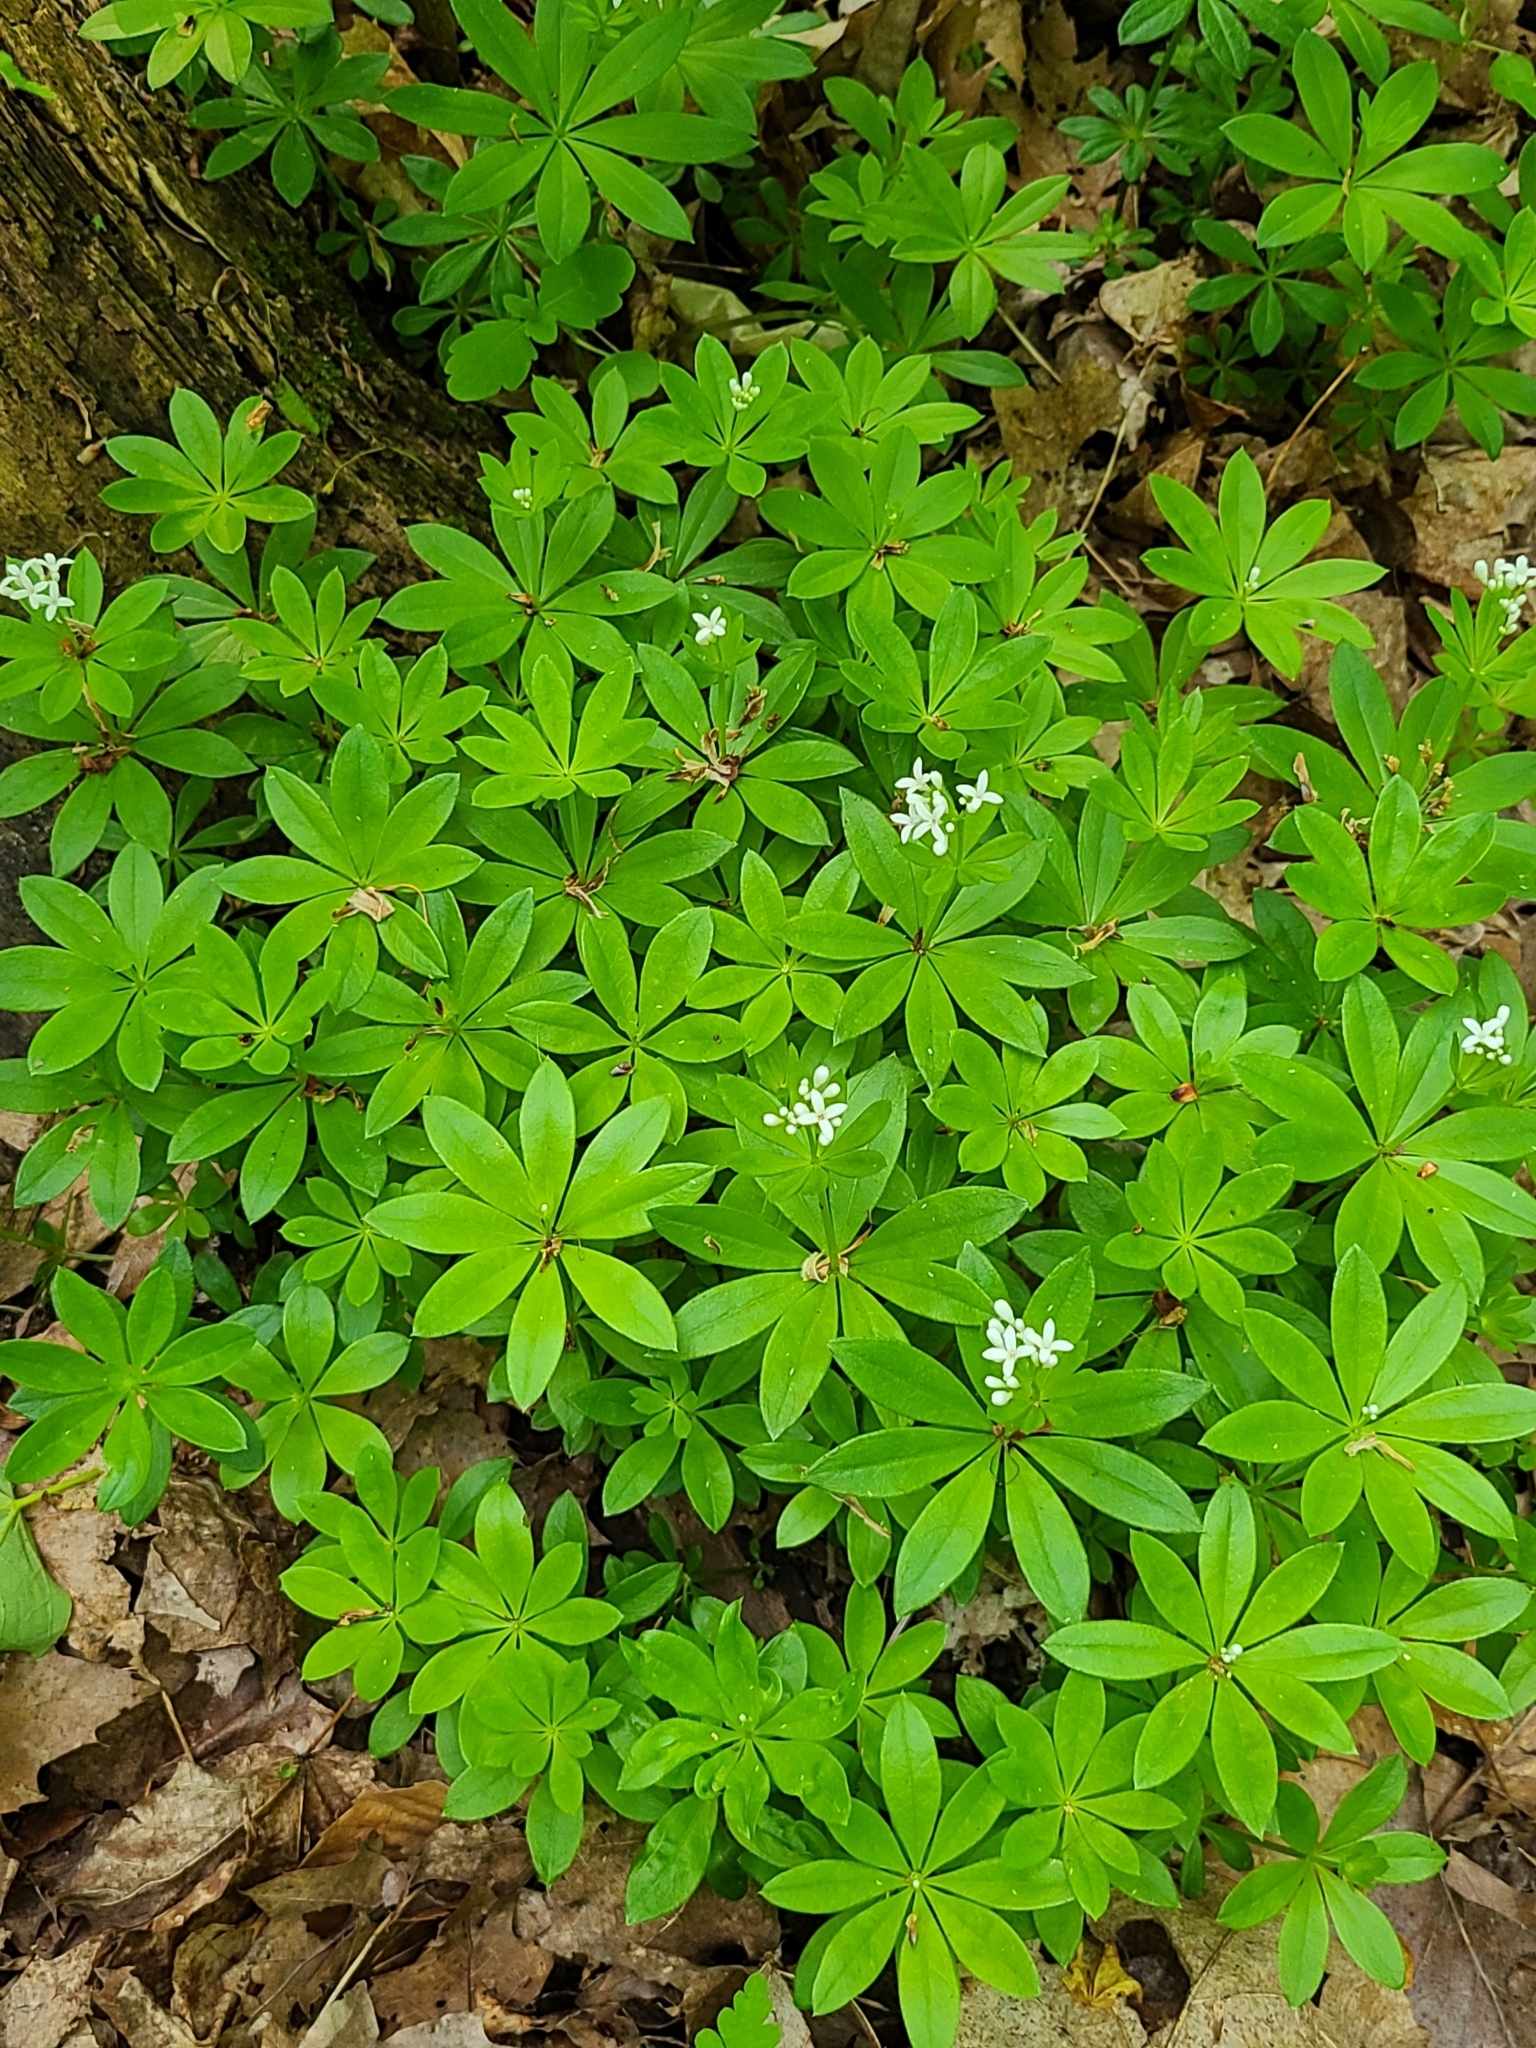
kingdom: Plantae
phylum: Tracheophyta
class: Magnoliopsida
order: Gentianales
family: Rubiaceae
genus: Galium
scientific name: Galium odoratum
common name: Sweet woodruff
